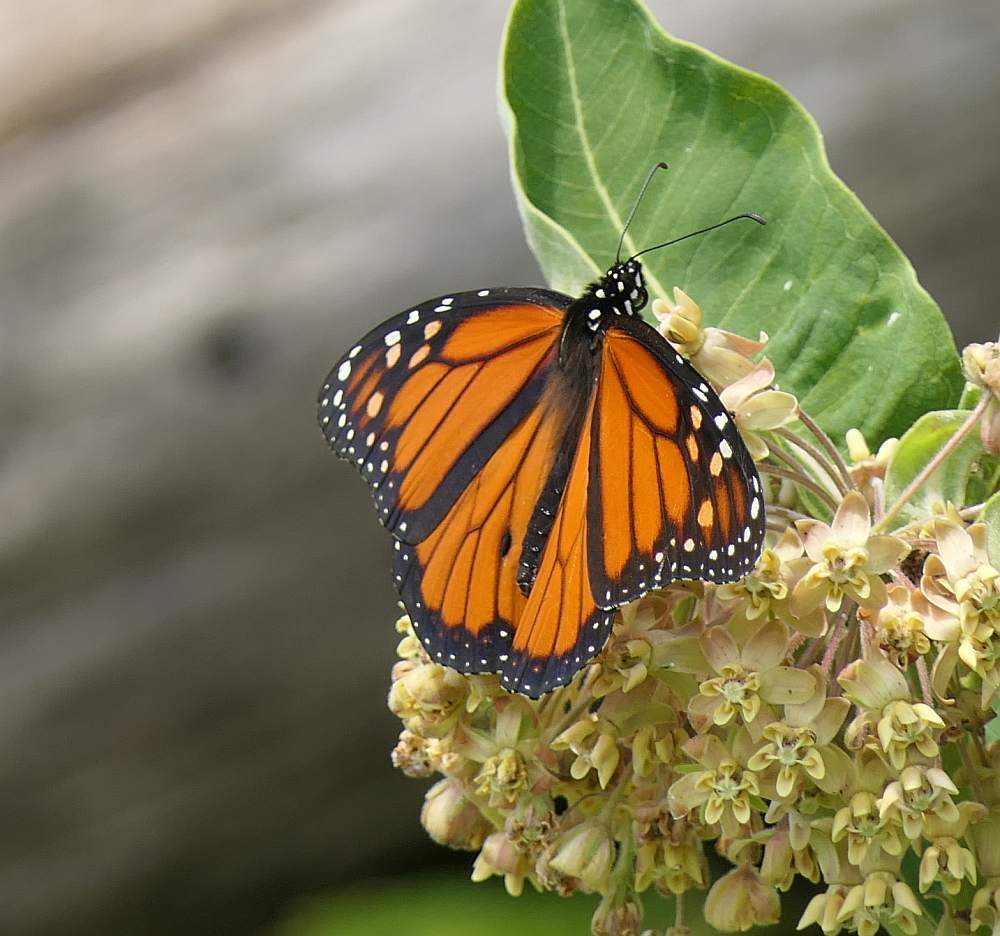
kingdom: Animalia
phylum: Arthropoda
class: Insecta
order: Lepidoptera
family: Nymphalidae
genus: Danaus
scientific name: Danaus plexippus
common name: Monarch
